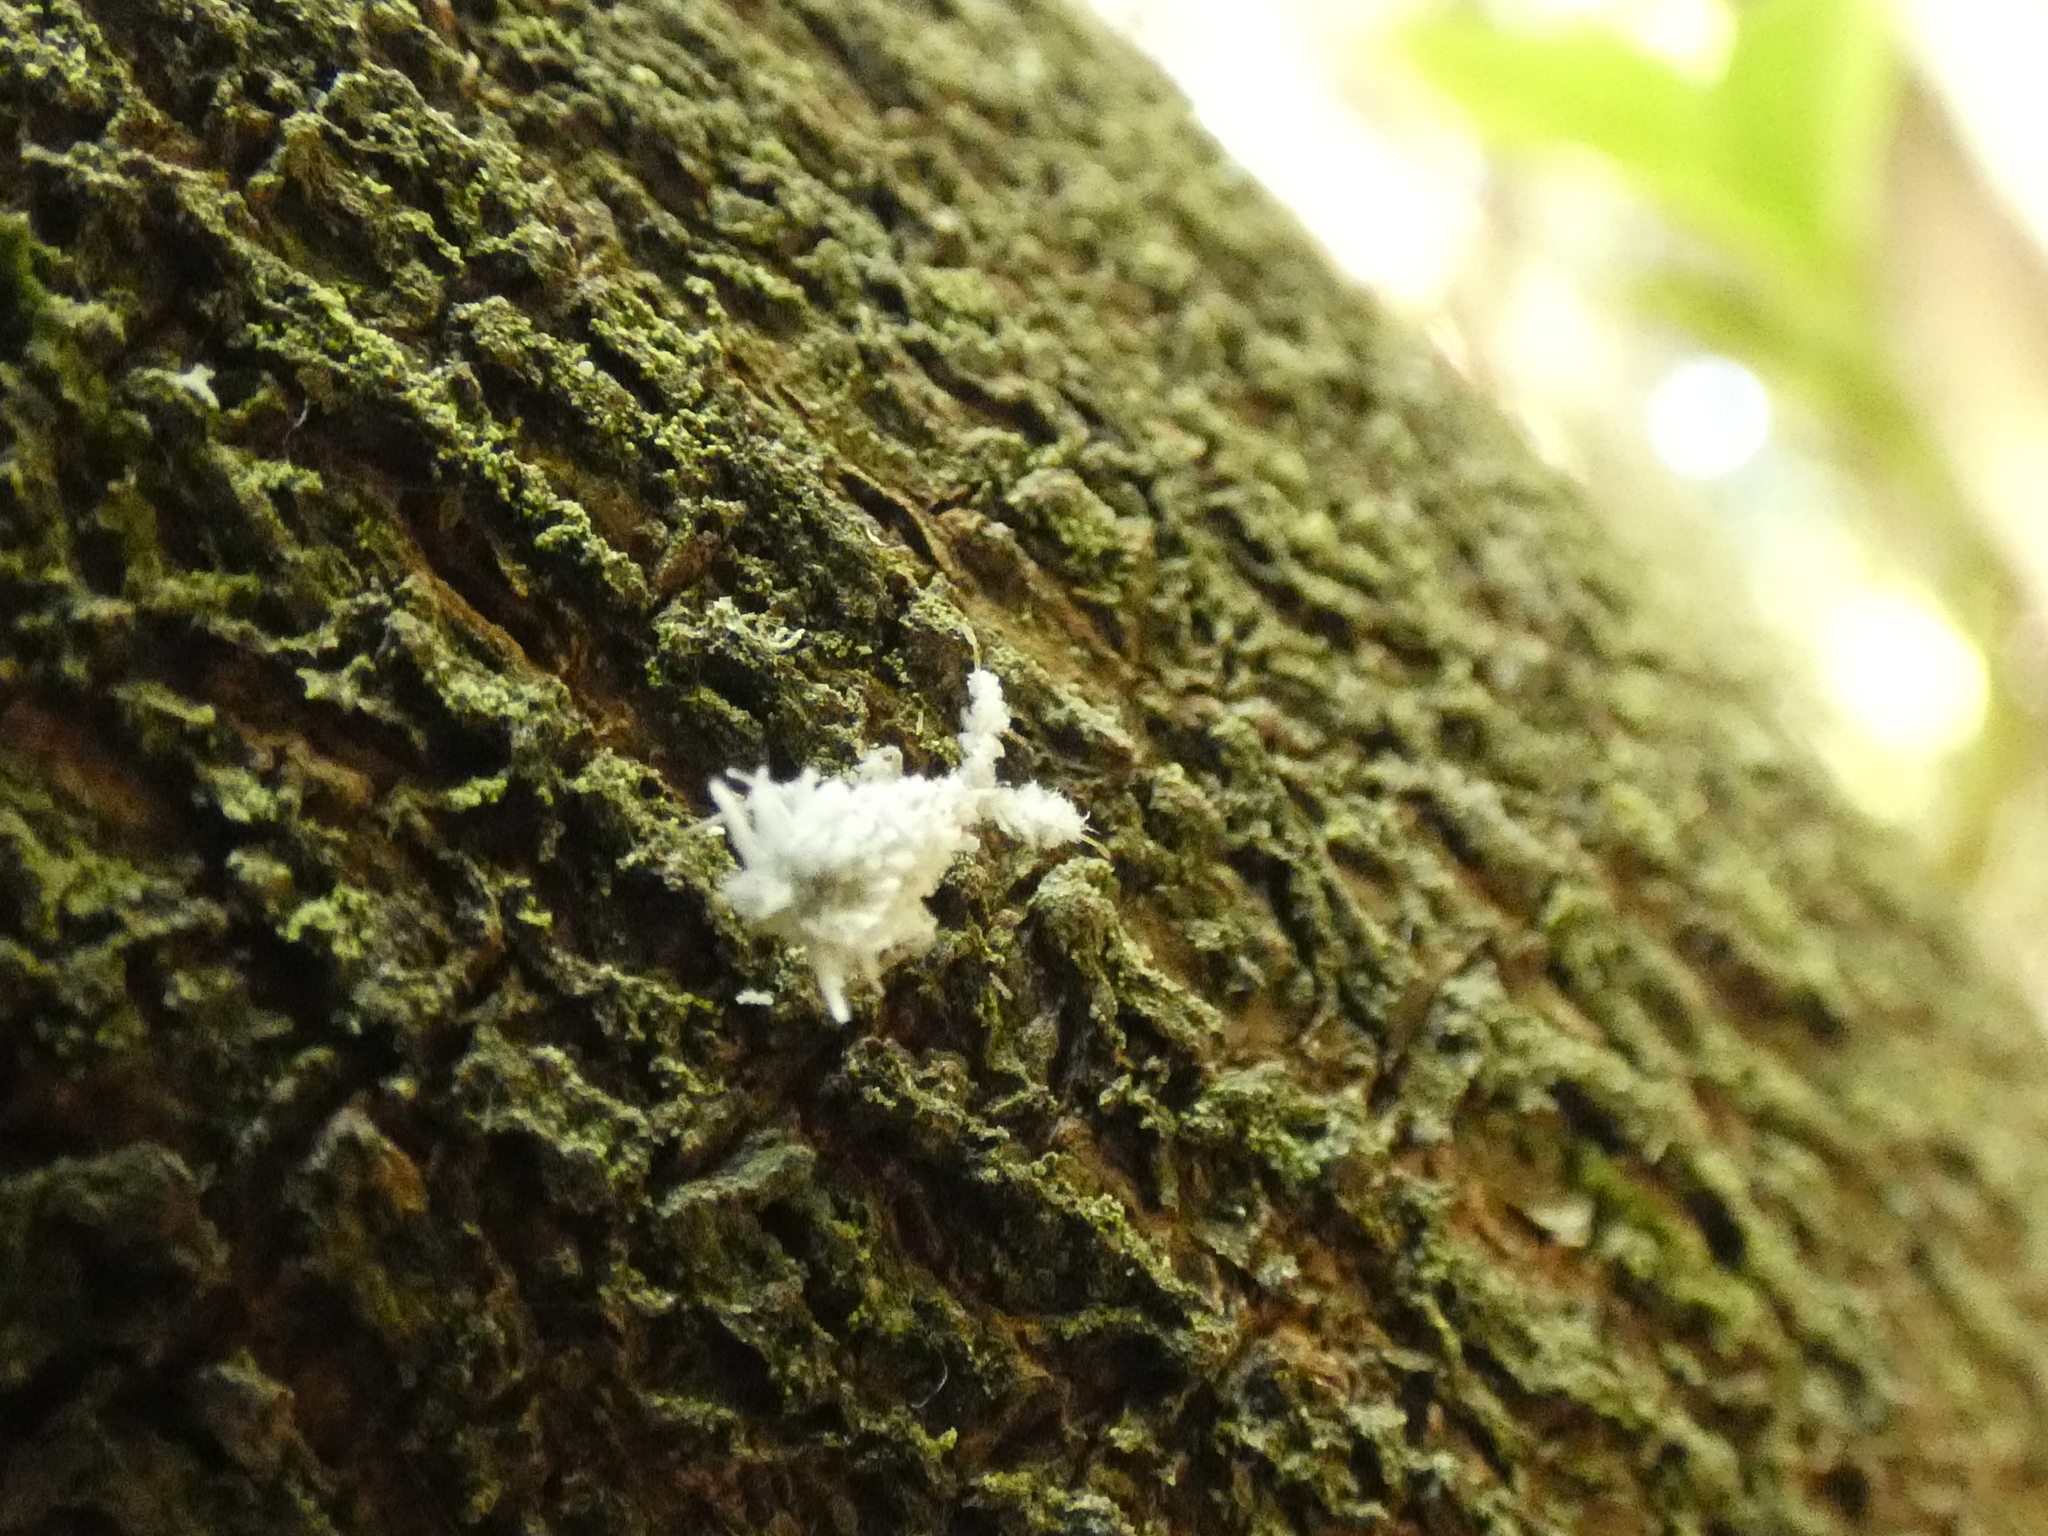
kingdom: Animalia
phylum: Arthropoda
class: Insecta
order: Hemiptera
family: Miridae
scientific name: Miridae
